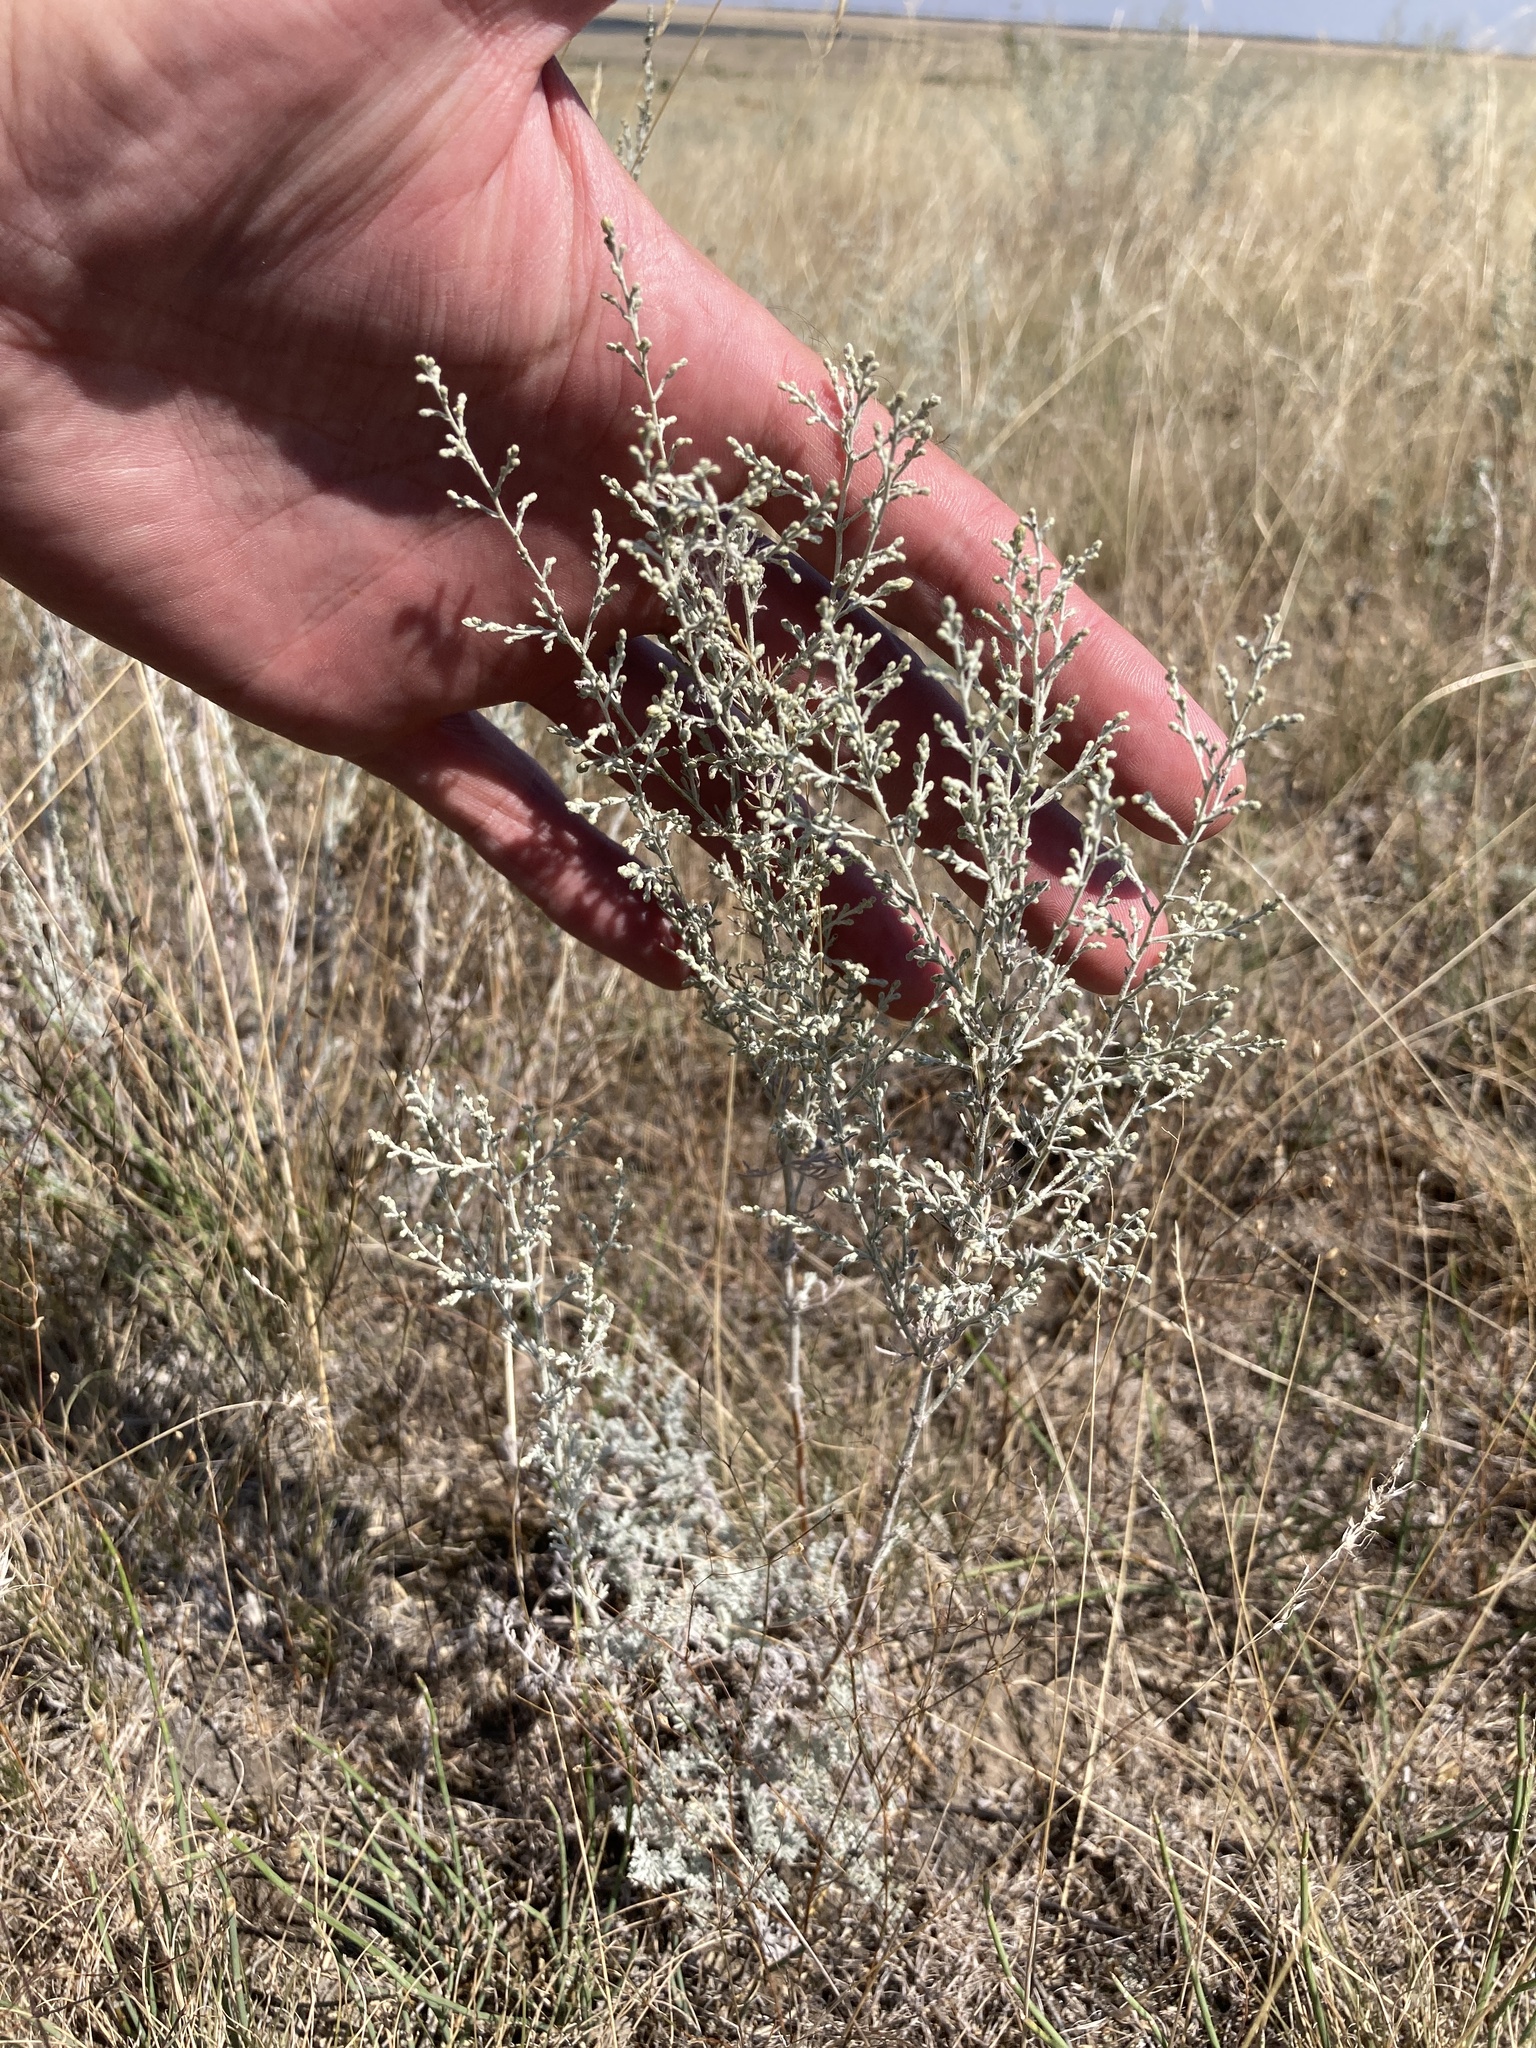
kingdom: Plantae
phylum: Tracheophyta
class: Magnoliopsida
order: Asterales
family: Asteraceae
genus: Artemisia
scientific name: Artemisia austriaca
